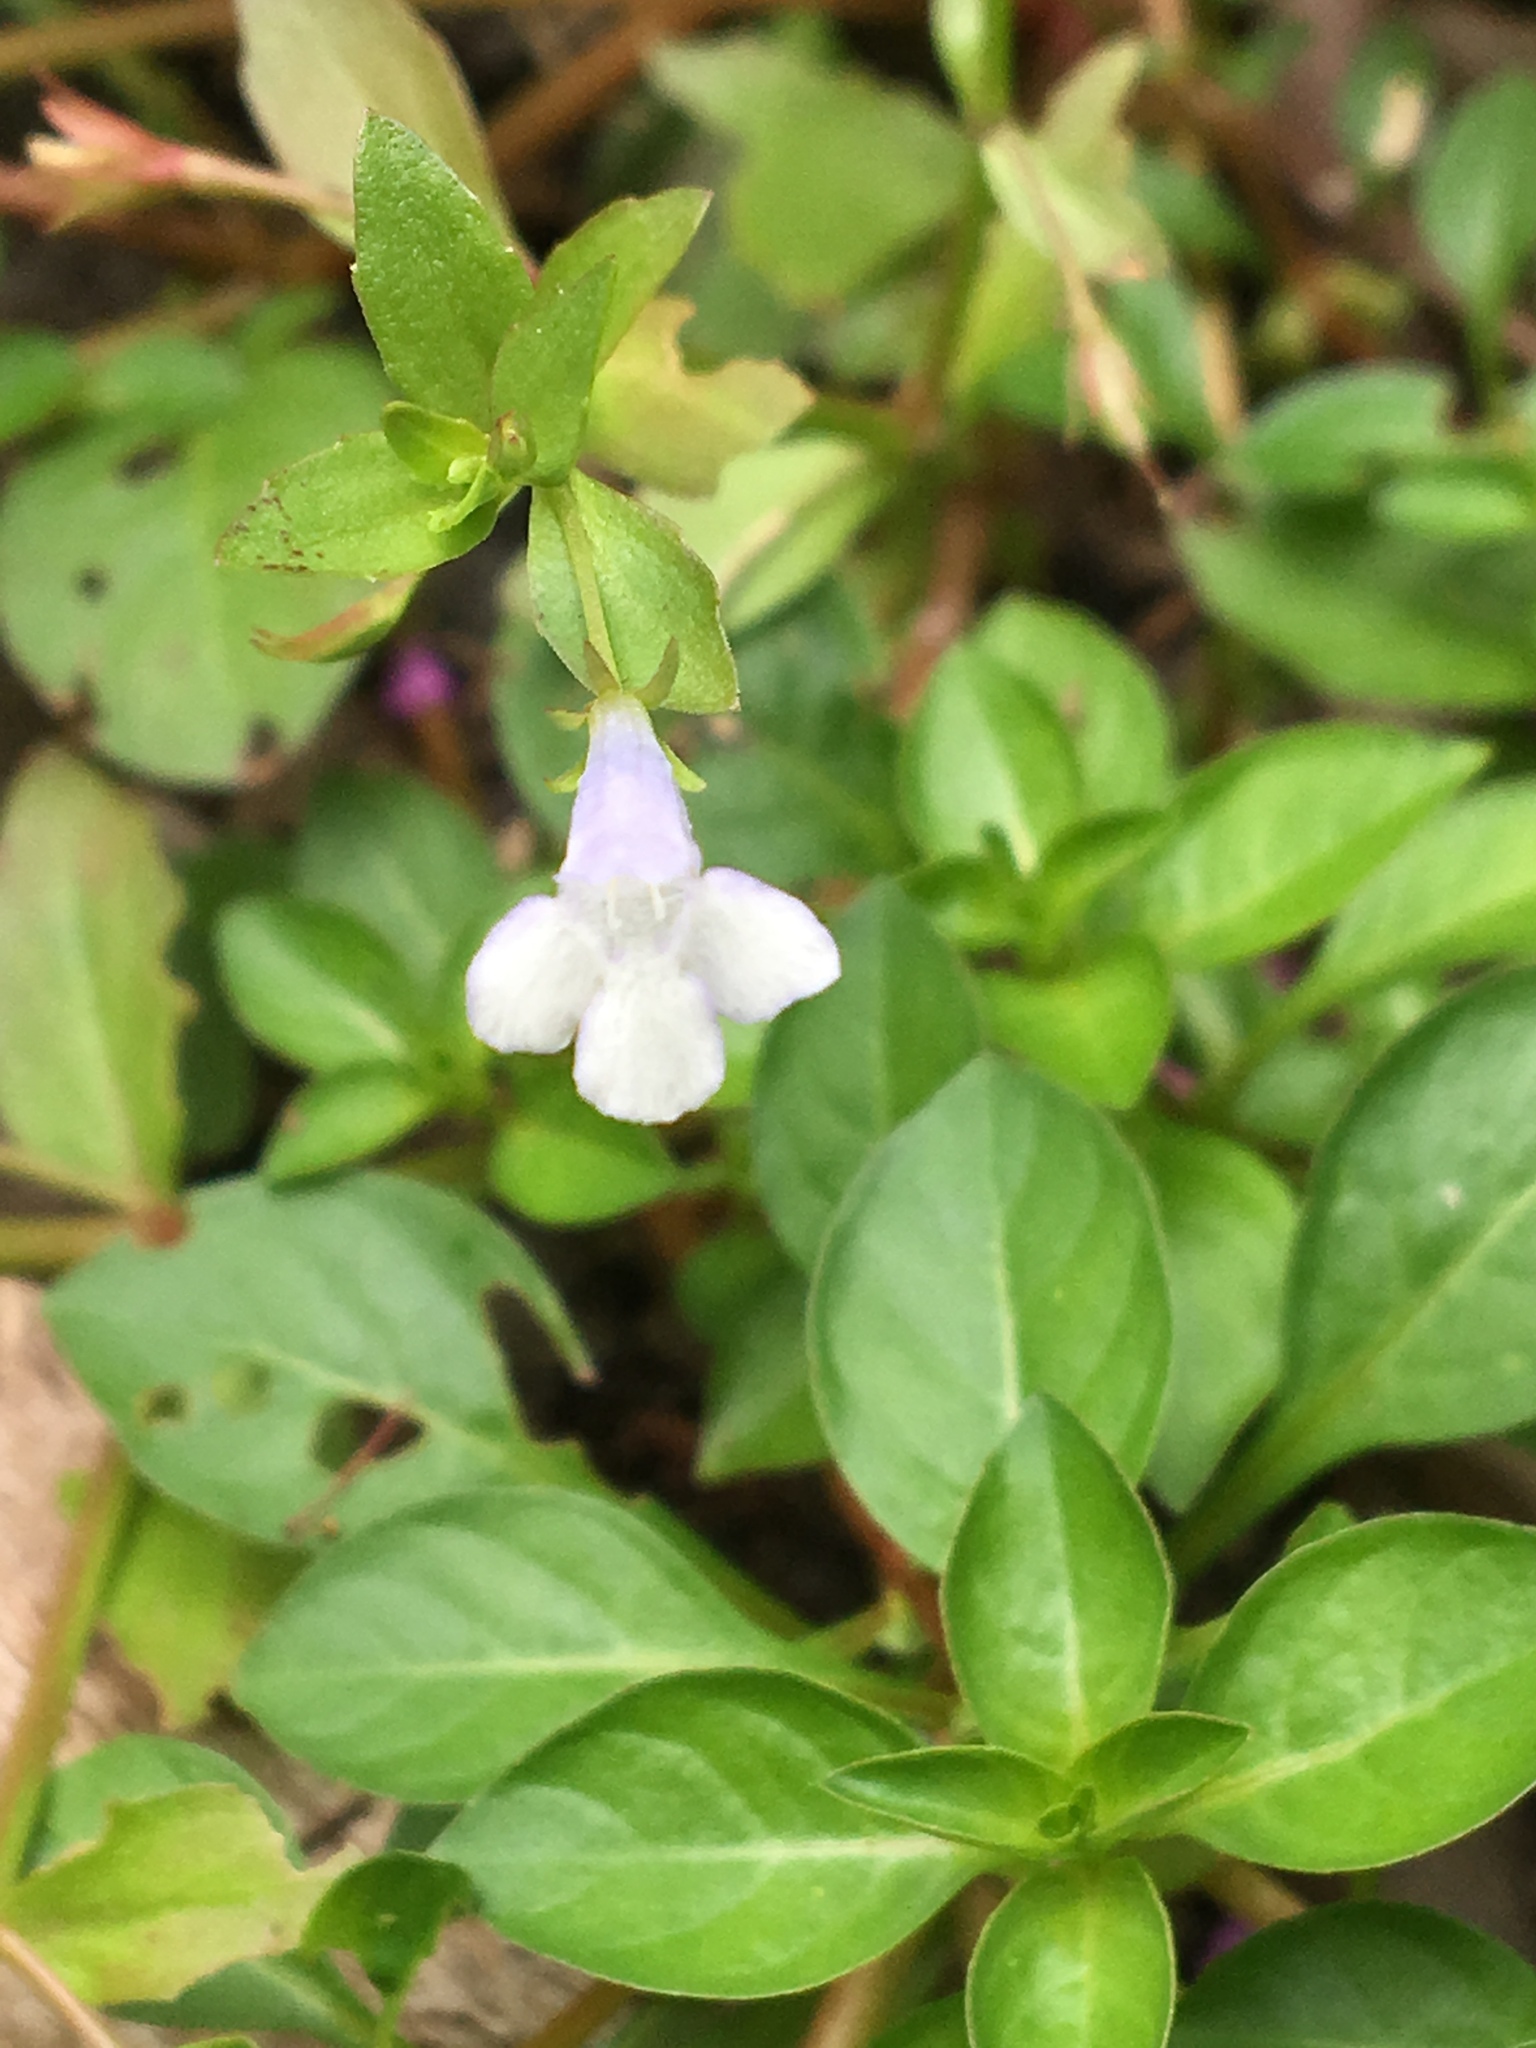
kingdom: Plantae
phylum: Tracheophyta
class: Magnoliopsida
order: Lamiales
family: Linderniaceae
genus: Lindernia
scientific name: Lindernia dubia
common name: Annual false pimpernel
